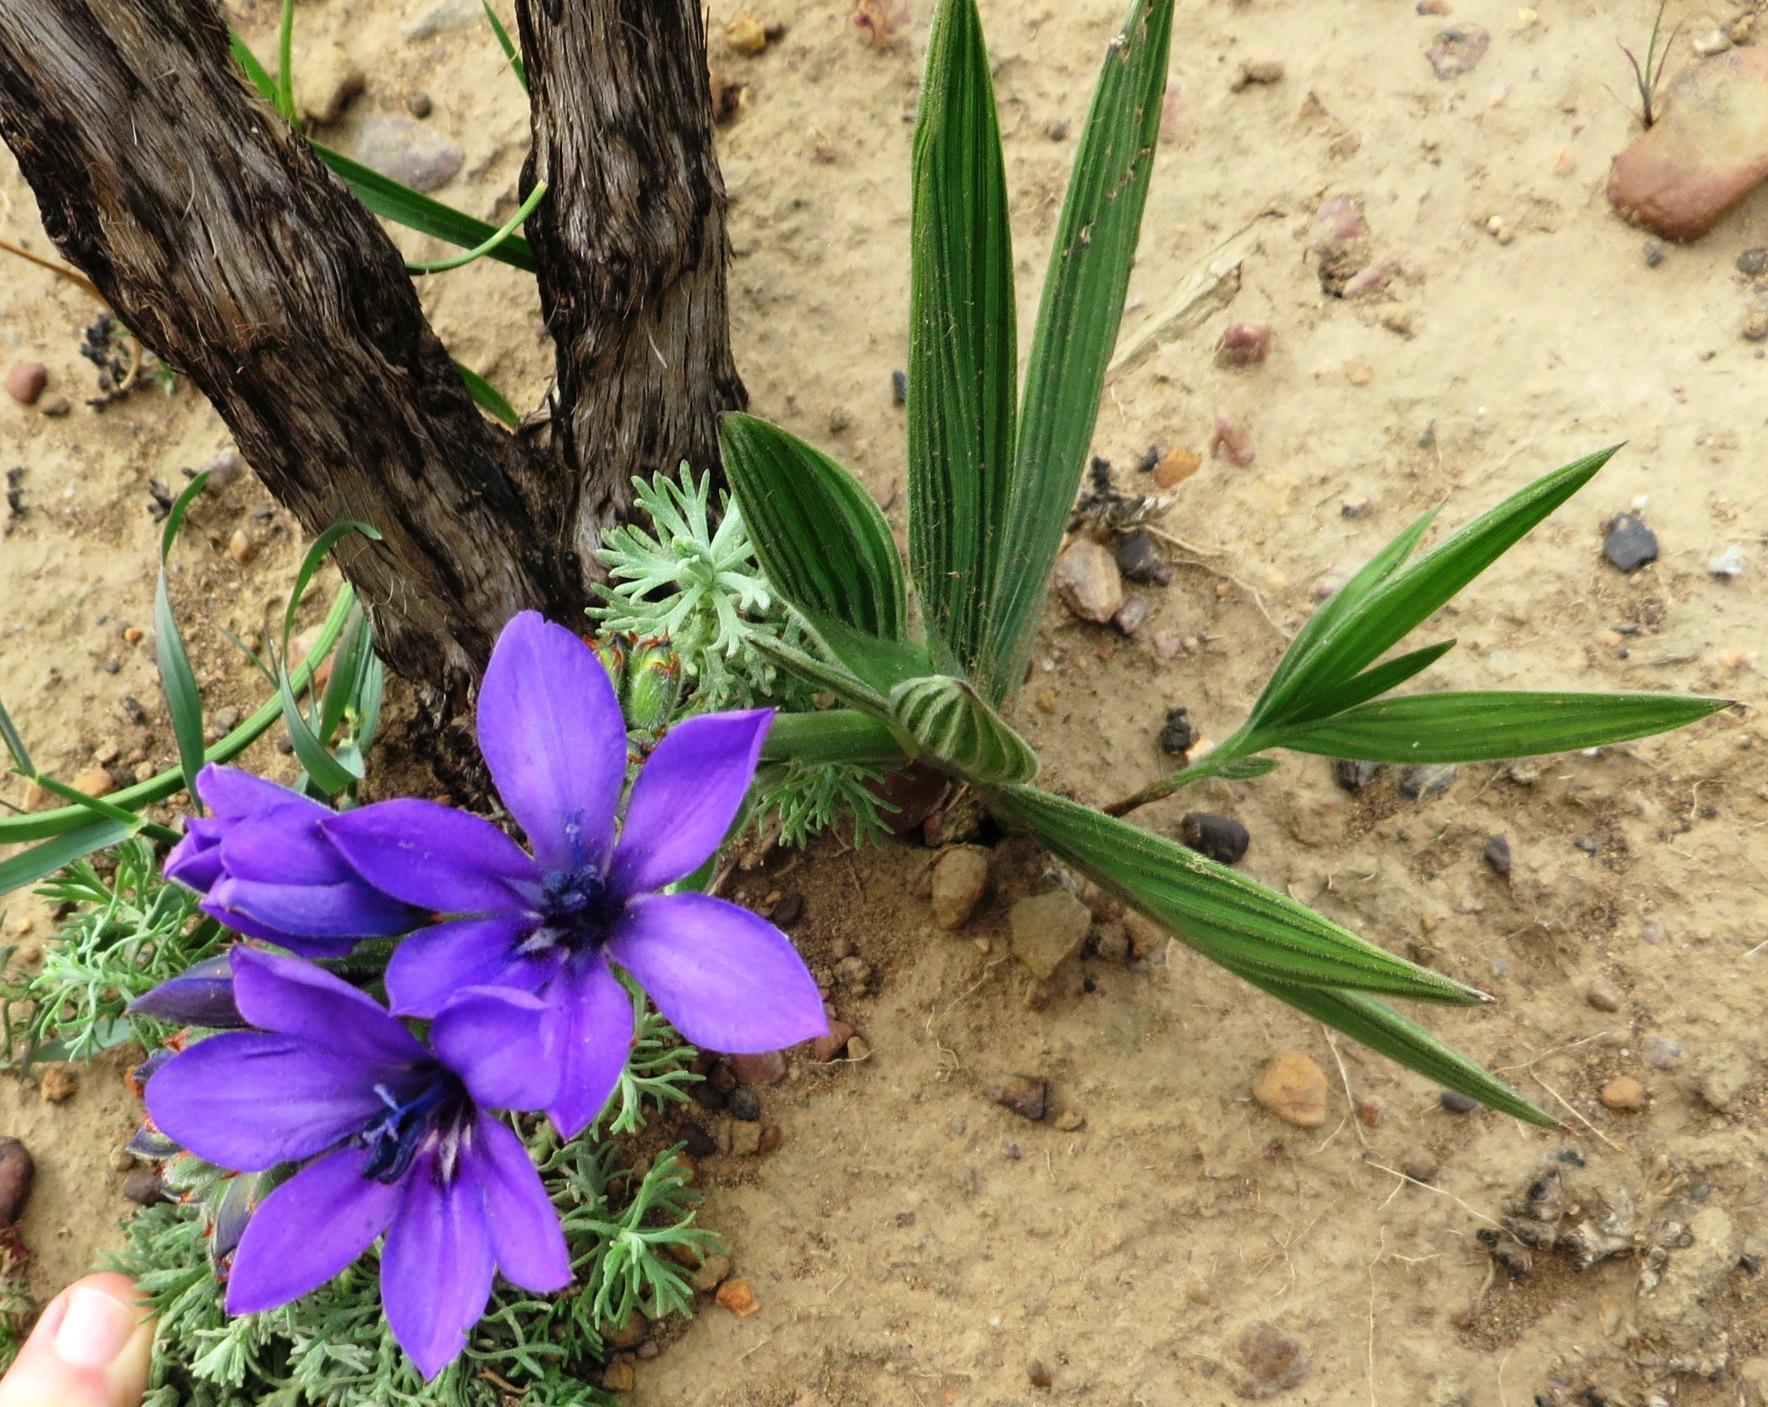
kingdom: Plantae
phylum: Tracheophyta
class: Liliopsida
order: Asparagales
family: Iridaceae
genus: Babiana
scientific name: Babiana angustifolia
